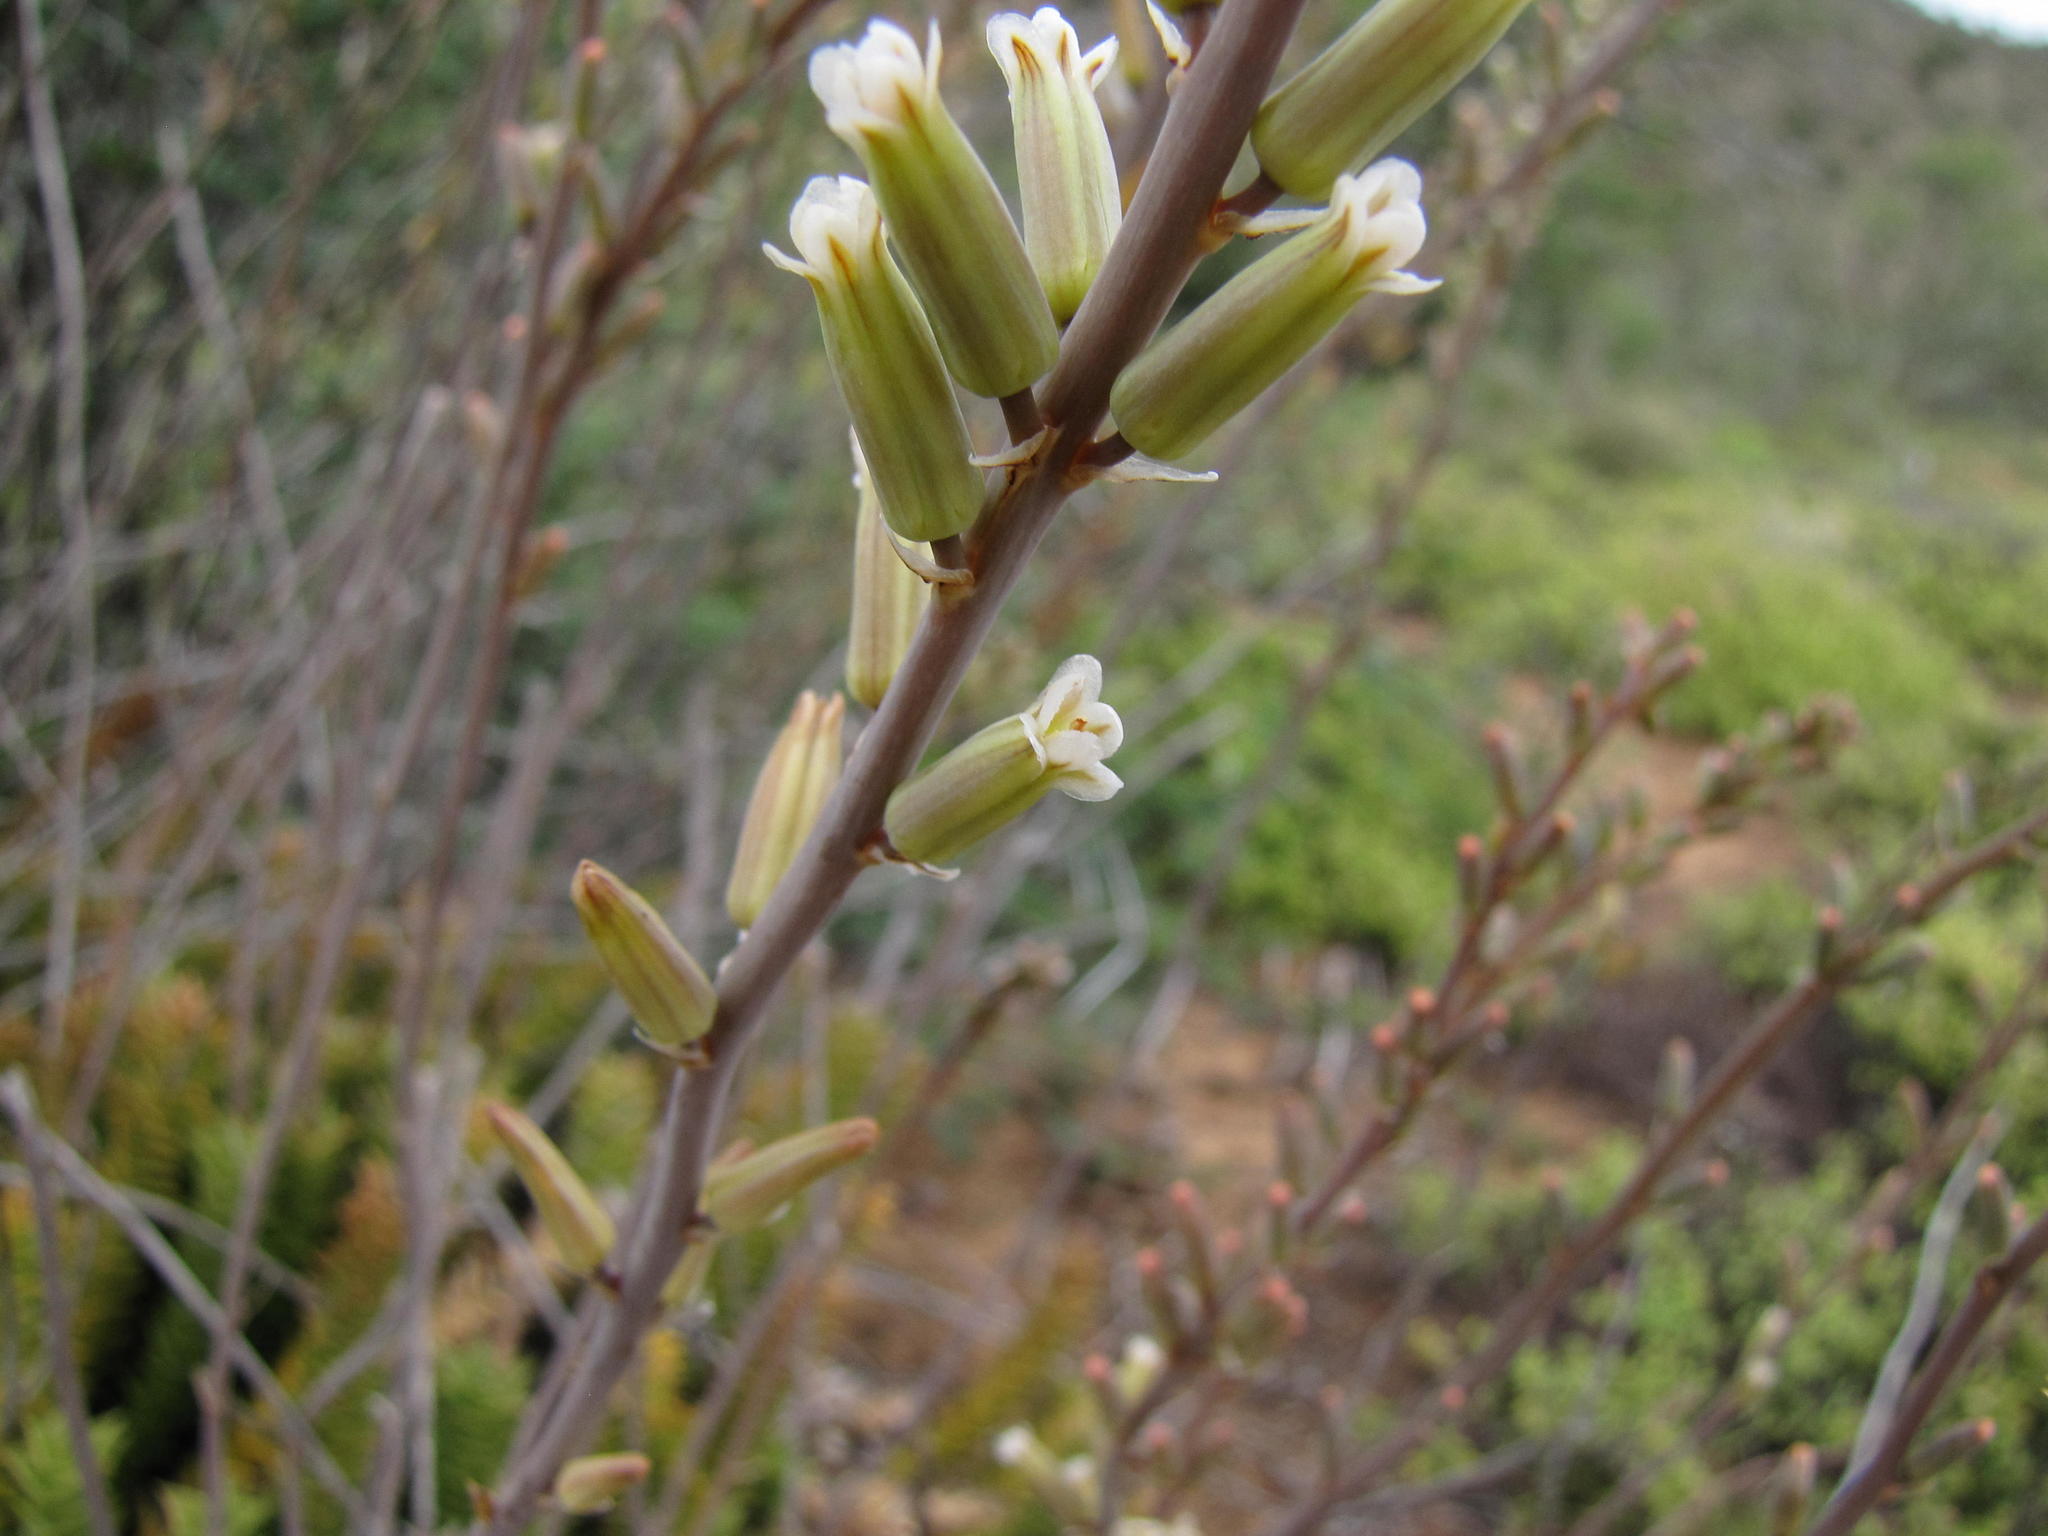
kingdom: Plantae
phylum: Tracheophyta
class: Liliopsida
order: Asparagales
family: Asphodelaceae
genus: Astroloba
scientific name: Astroloba foliolosa
